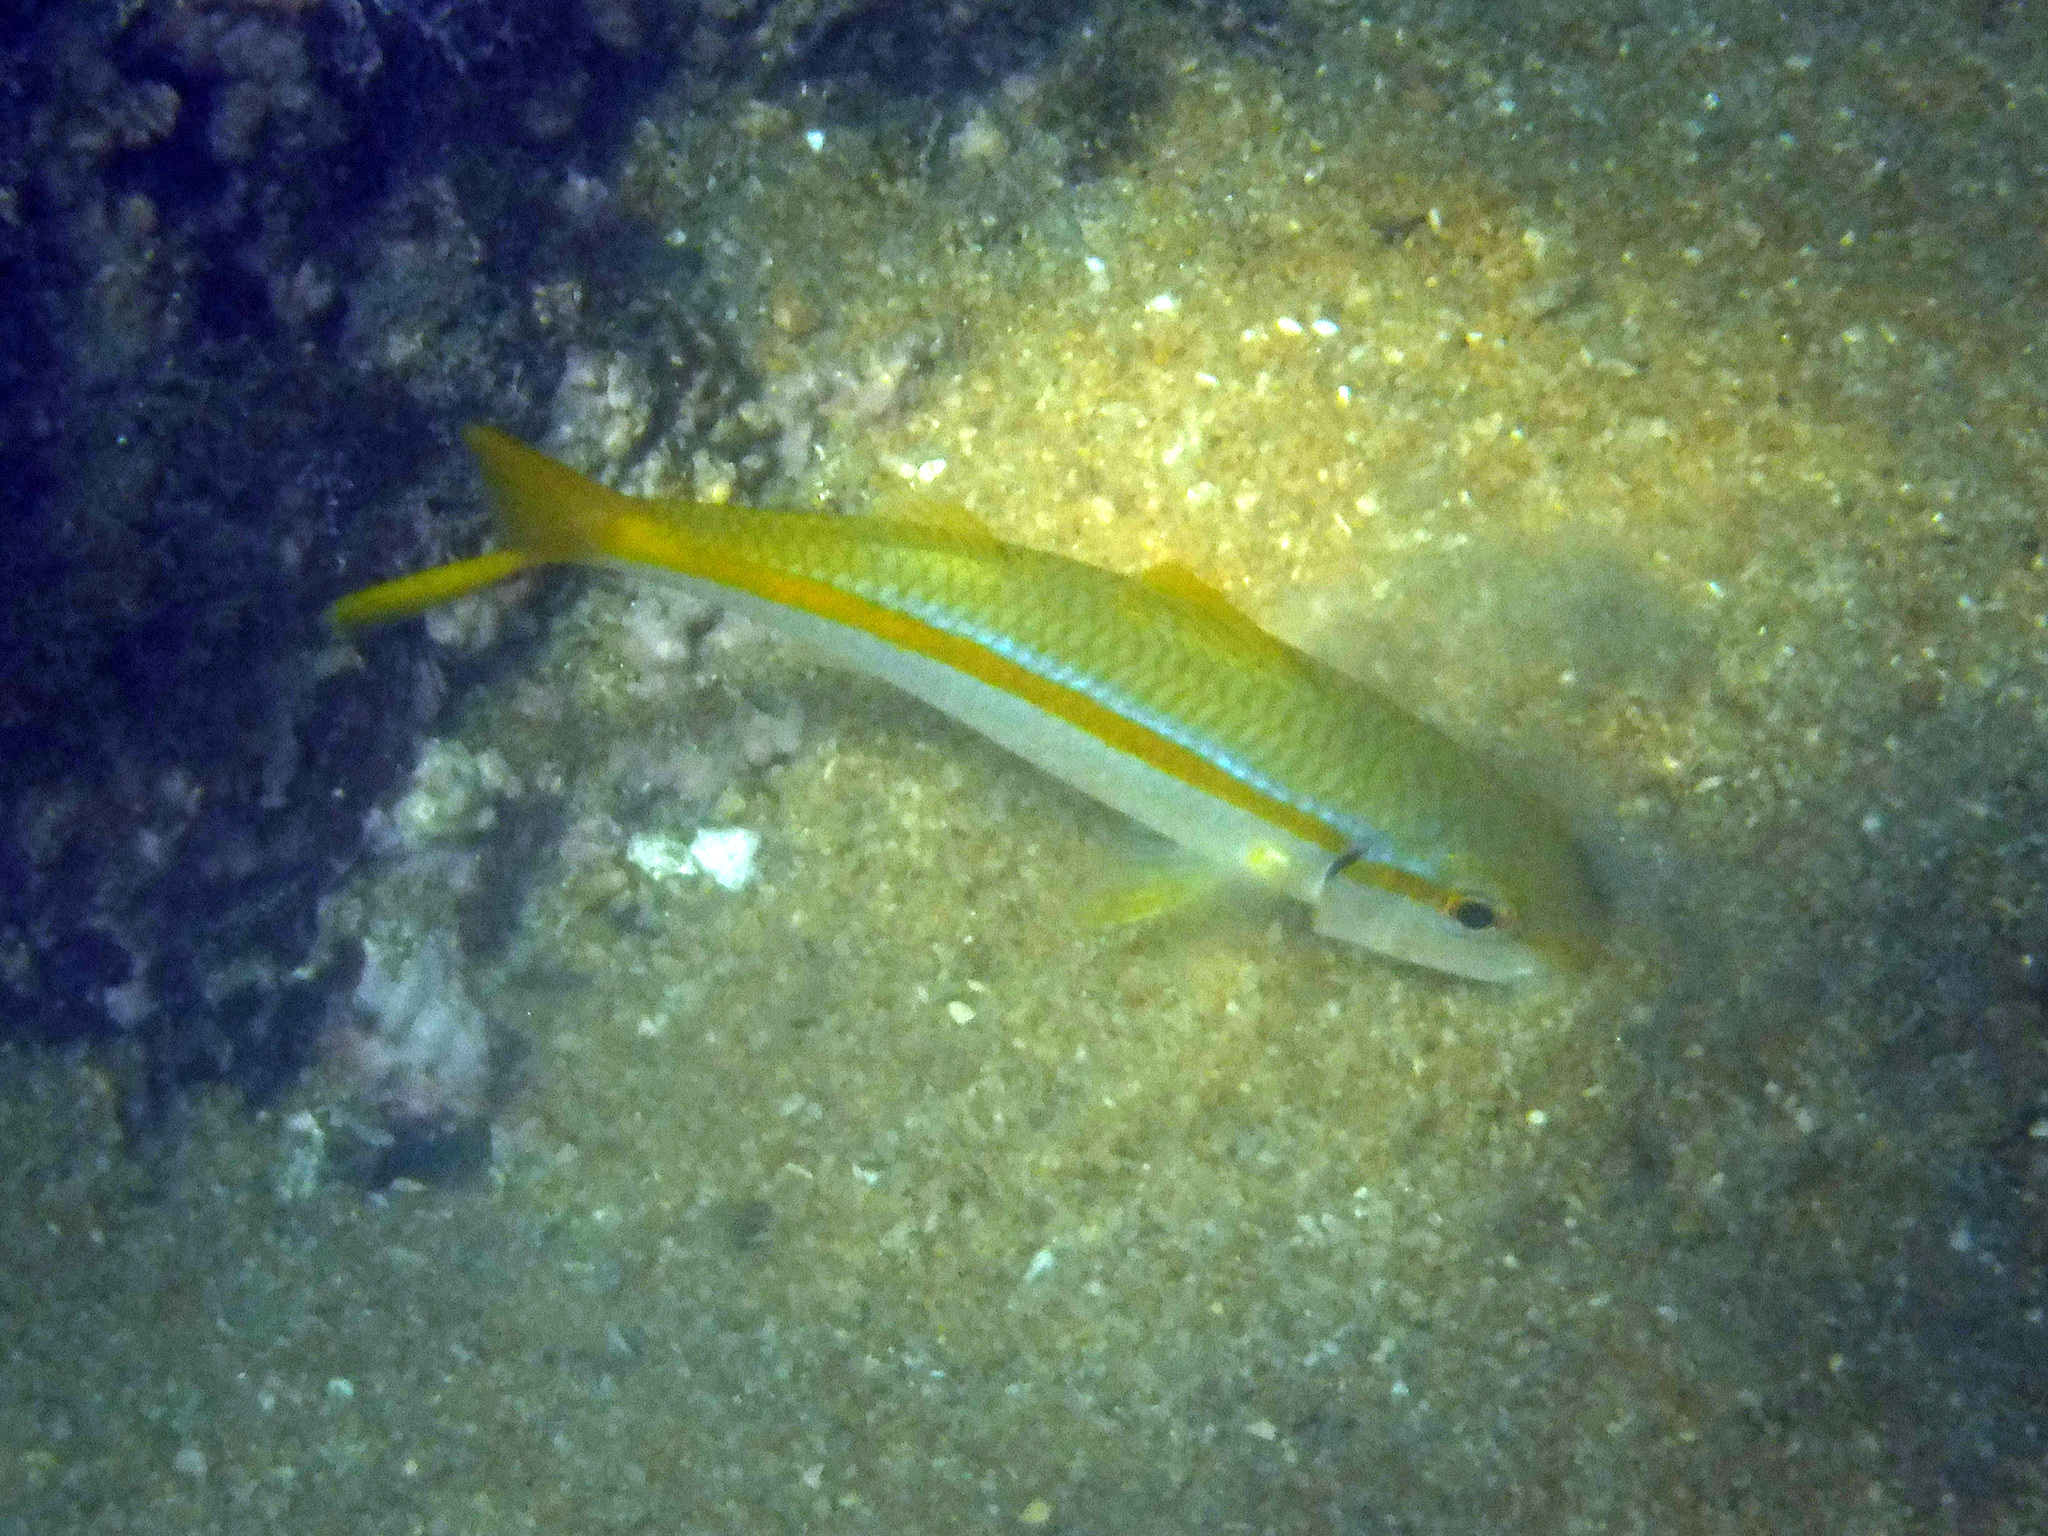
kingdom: Animalia
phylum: Chordata
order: Perciformes
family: Mullidae
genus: Mulloidichthys
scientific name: Mulloidichthys dentatus
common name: Mexican goatfish
